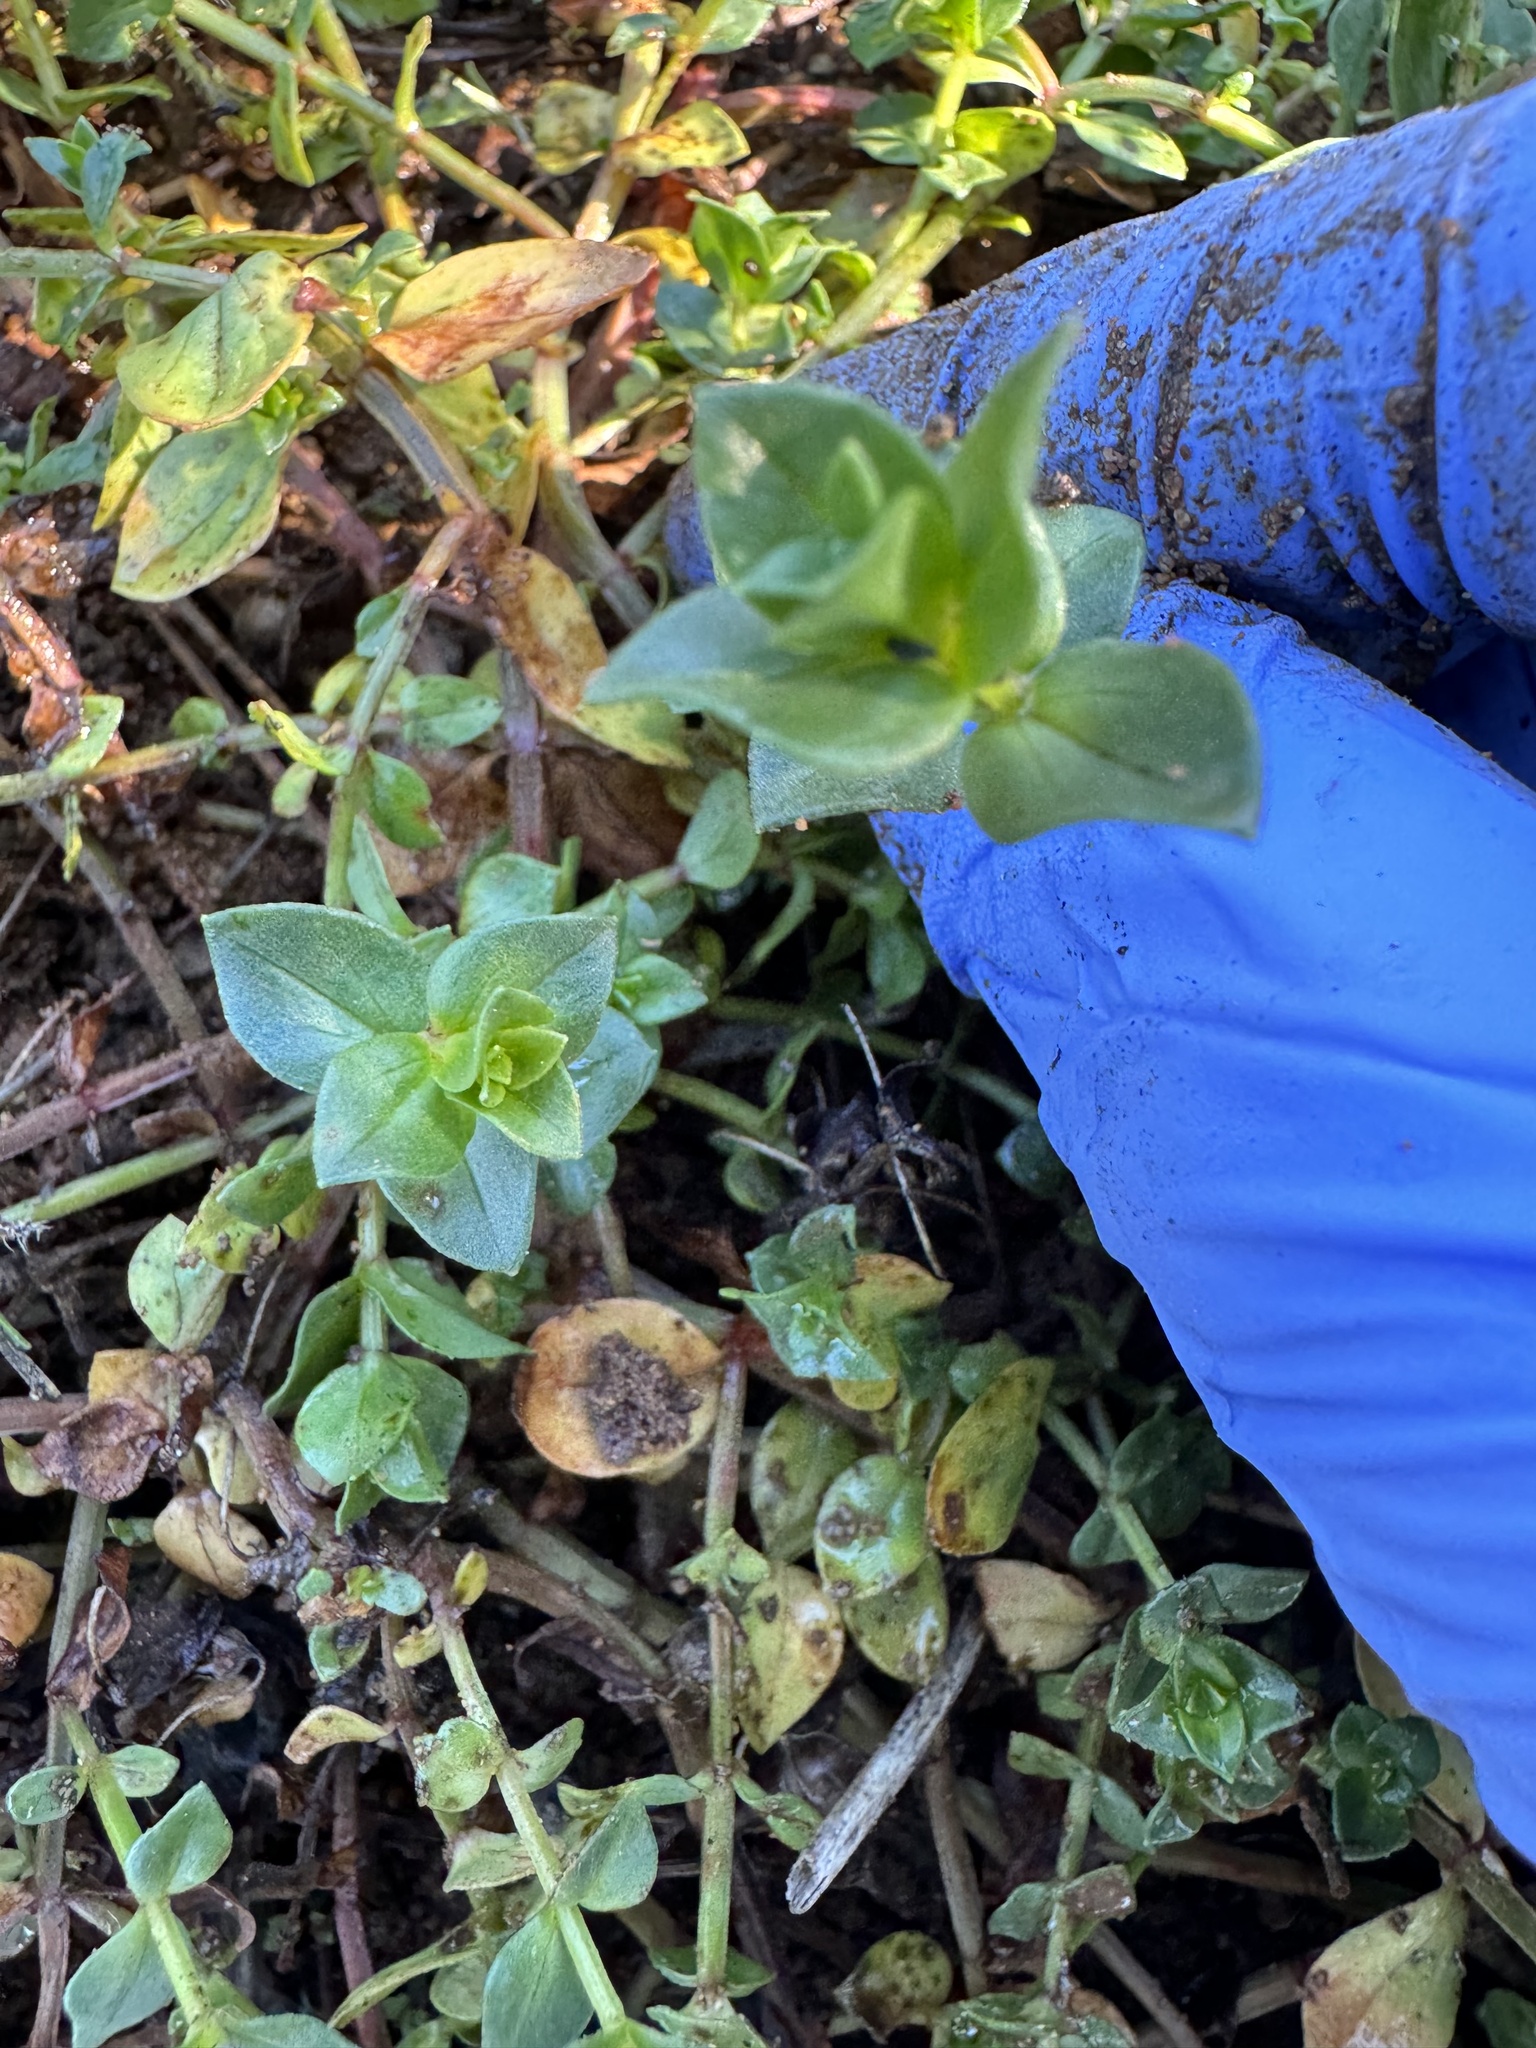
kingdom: Plantae
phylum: Tracheophyta
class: Magnoliopsida
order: Ericales
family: Primulaceae
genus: Lysimachia
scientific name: Lysimachia arvensis
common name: Scarlet pimpernel
